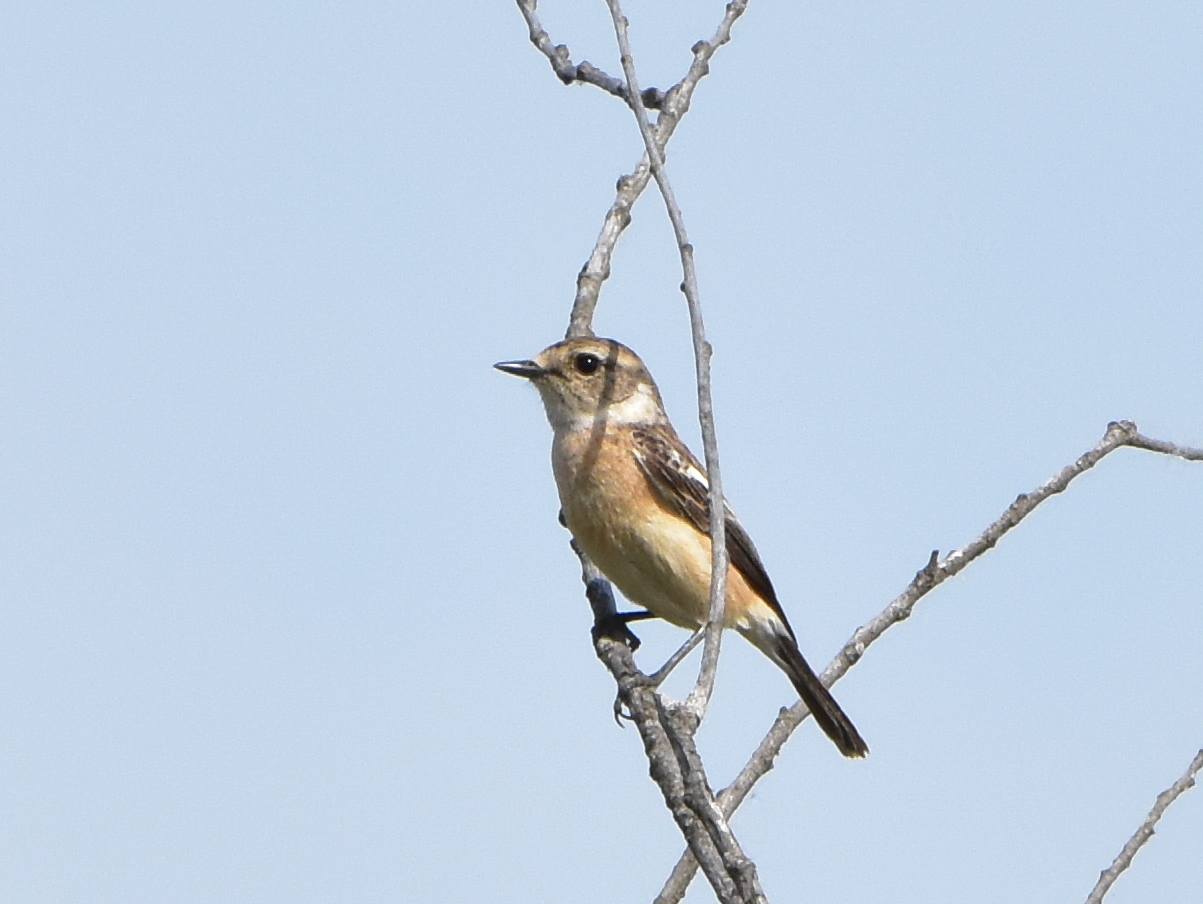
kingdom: Animalia
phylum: Chordata
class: Aves
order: Passeriformes
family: Muscicapidae
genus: Saxicola
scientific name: Saxicola maurus
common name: Siberian stonechat
